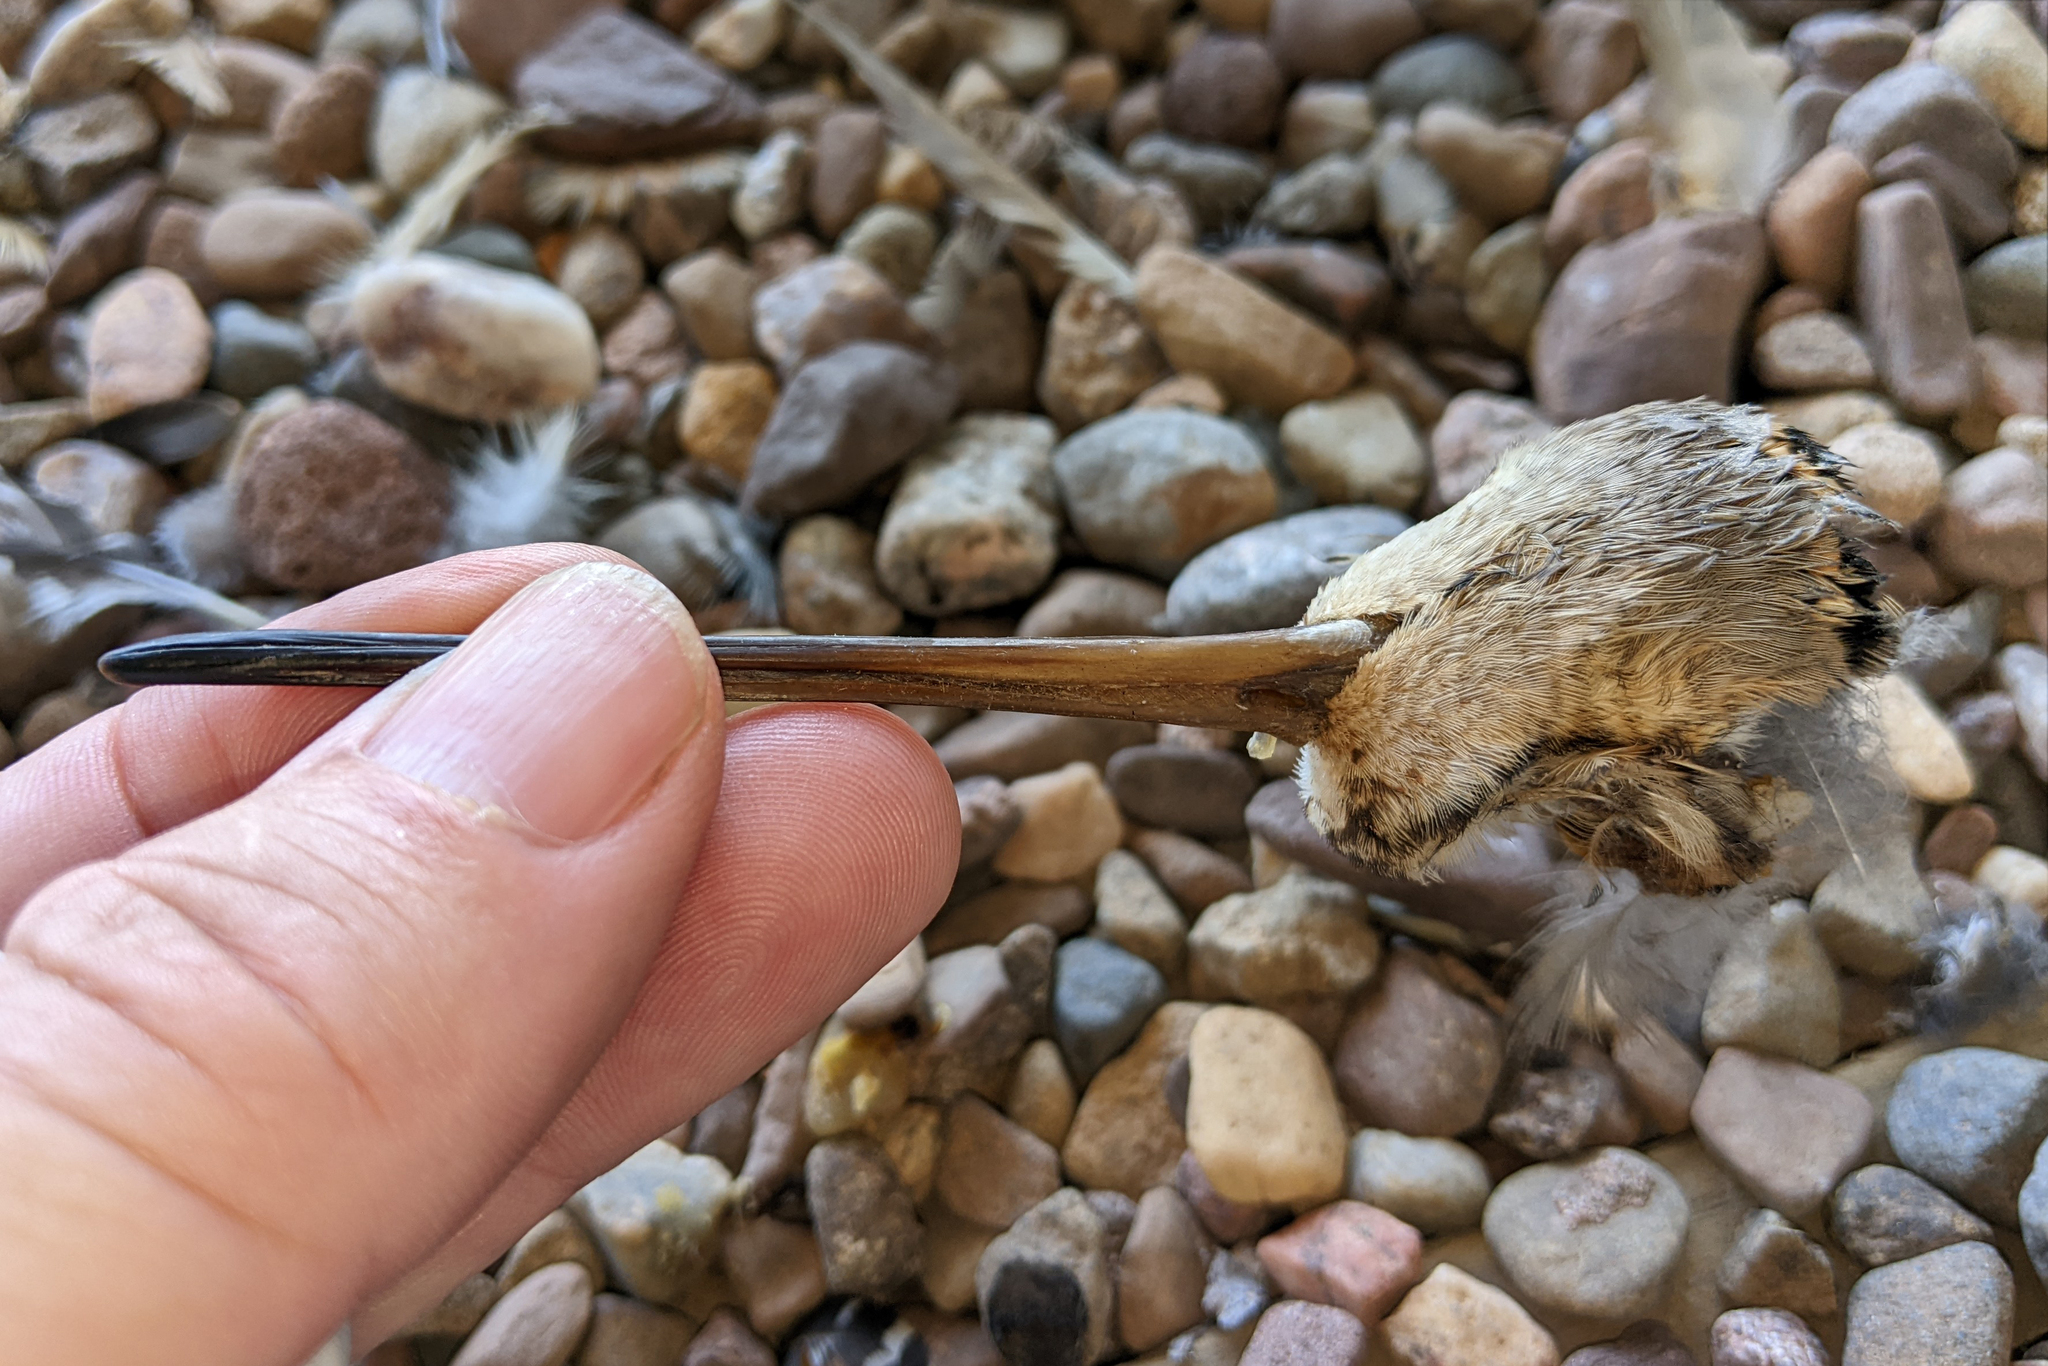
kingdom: Animalia
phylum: Chordata
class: Aves
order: Charadriiformes
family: Scolopacidae
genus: Scolopax
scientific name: Scolopax minor
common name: American woodcock
